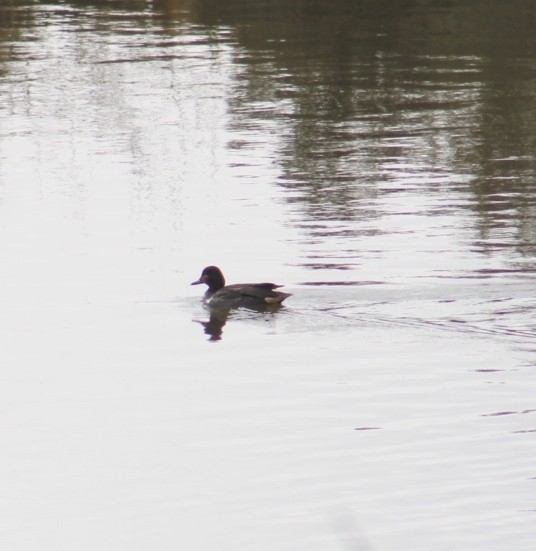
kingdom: Animalia
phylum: Chordata
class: Aves
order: Anseriformes
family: Anatidae
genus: Anas
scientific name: Anas crecca
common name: Eurasian teal
